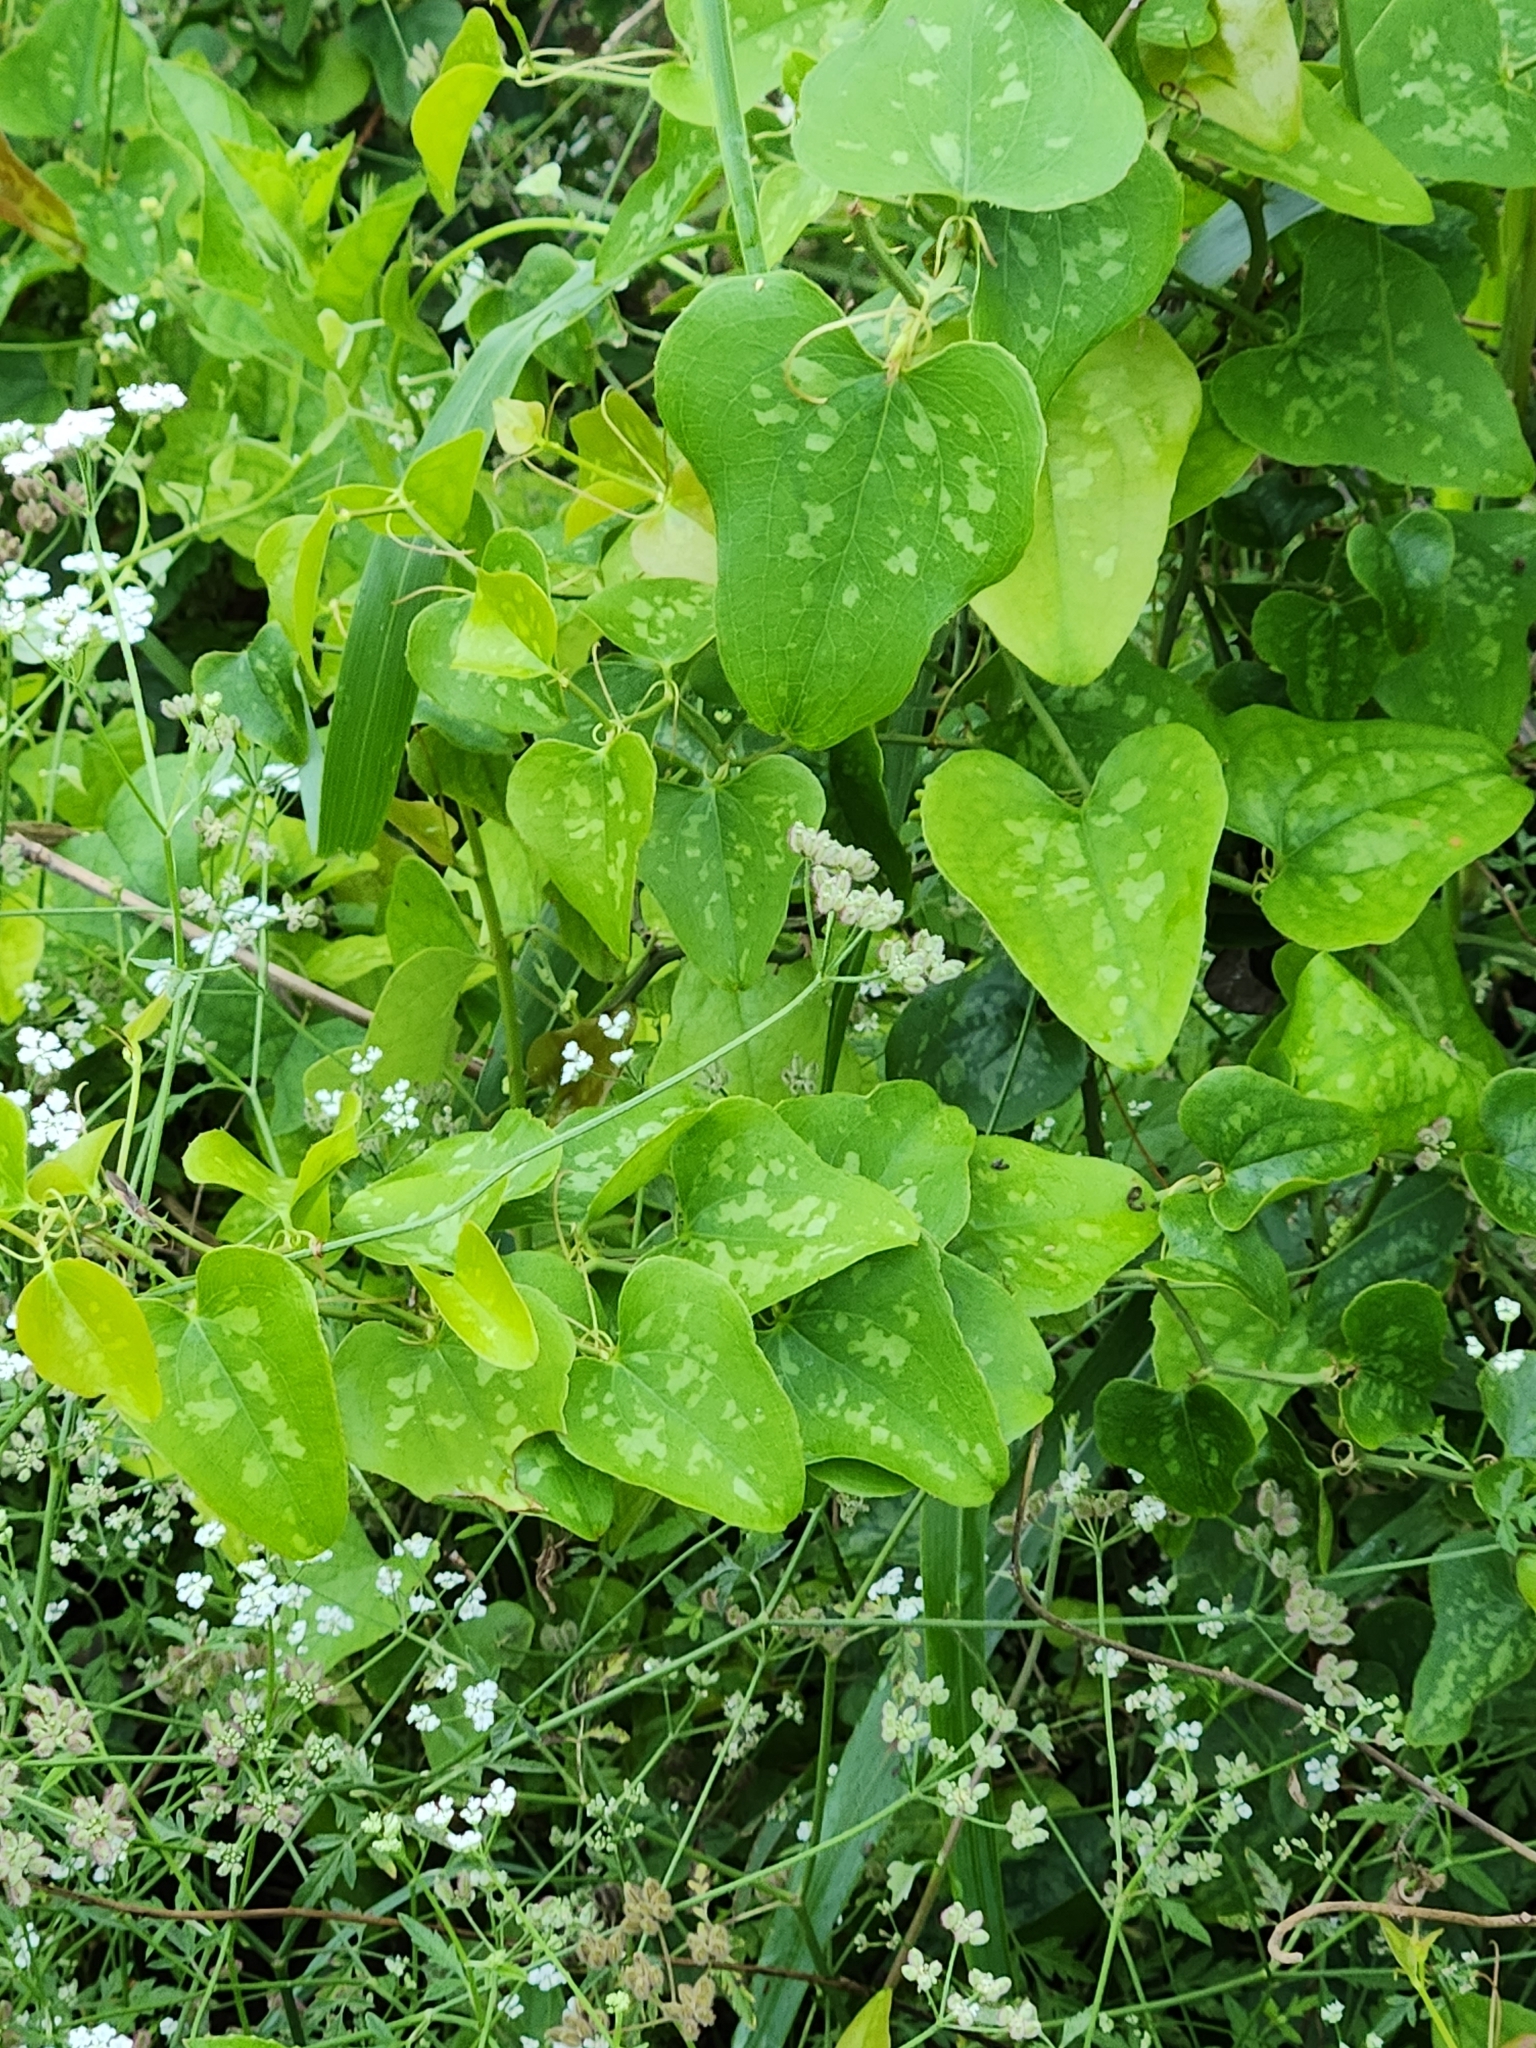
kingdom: Plantae
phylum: Tracheophyta
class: Liliopsida
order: Liliales
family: Smilacaceae
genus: Smilax
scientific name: Smilax bona-nox
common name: Catbrier
